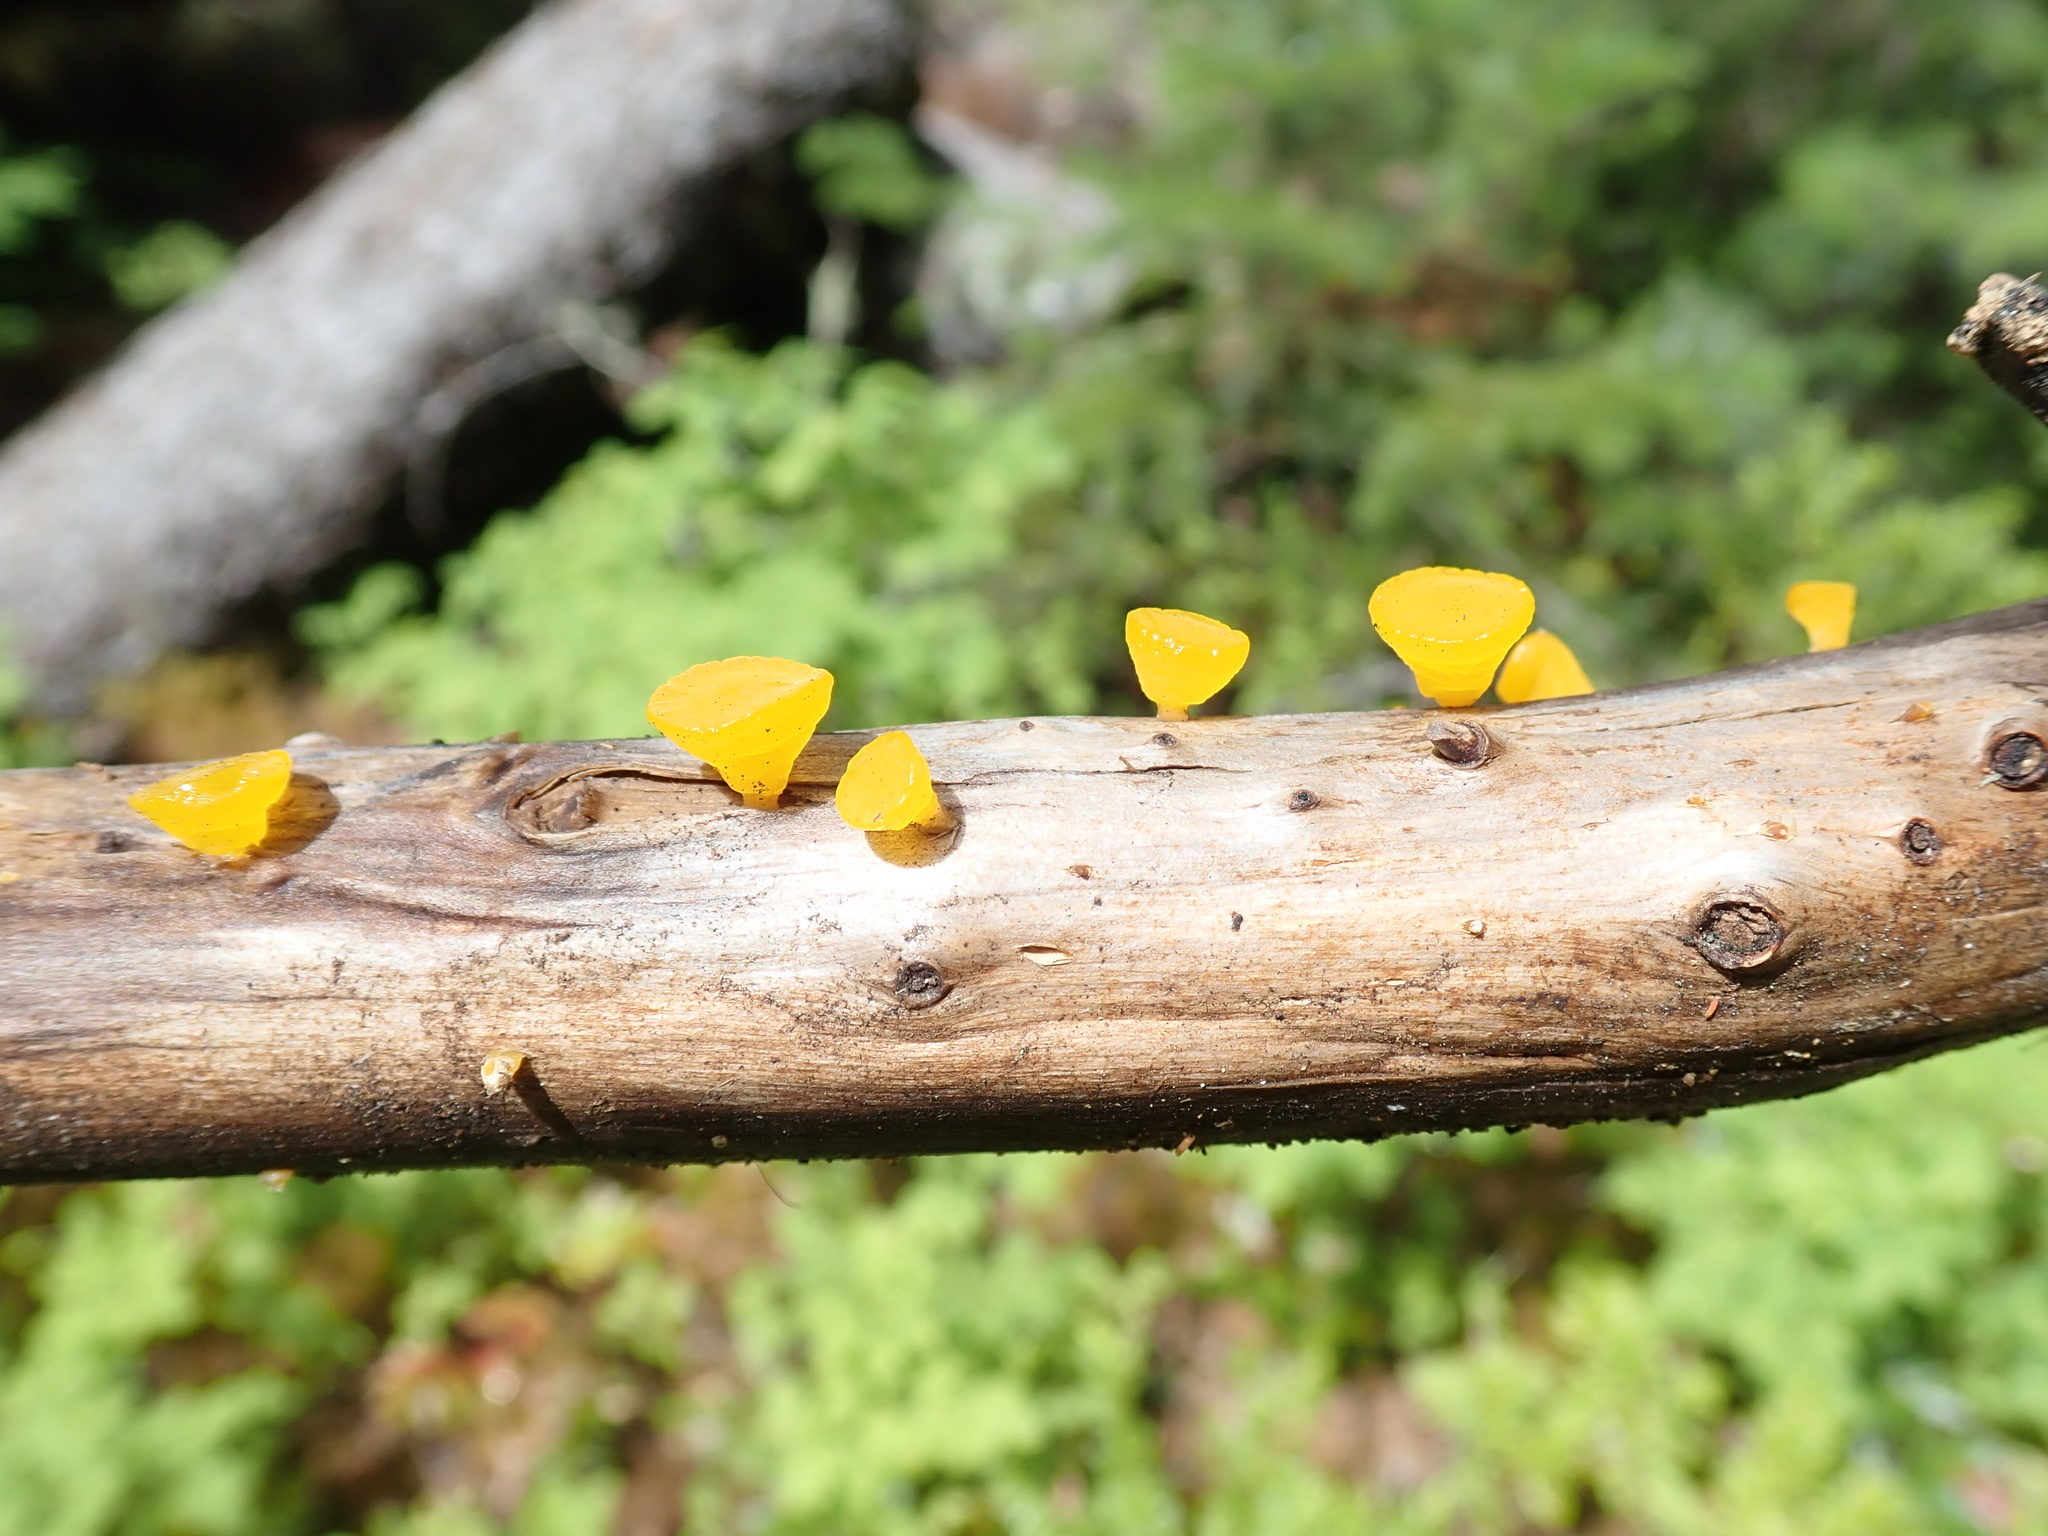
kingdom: Fungi
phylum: Basidiomycota
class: Dacrymycetes
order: Dacrymycetales
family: Dacrymycetaceae
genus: Guepiniopsis
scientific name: Guepiniopsis alpina
